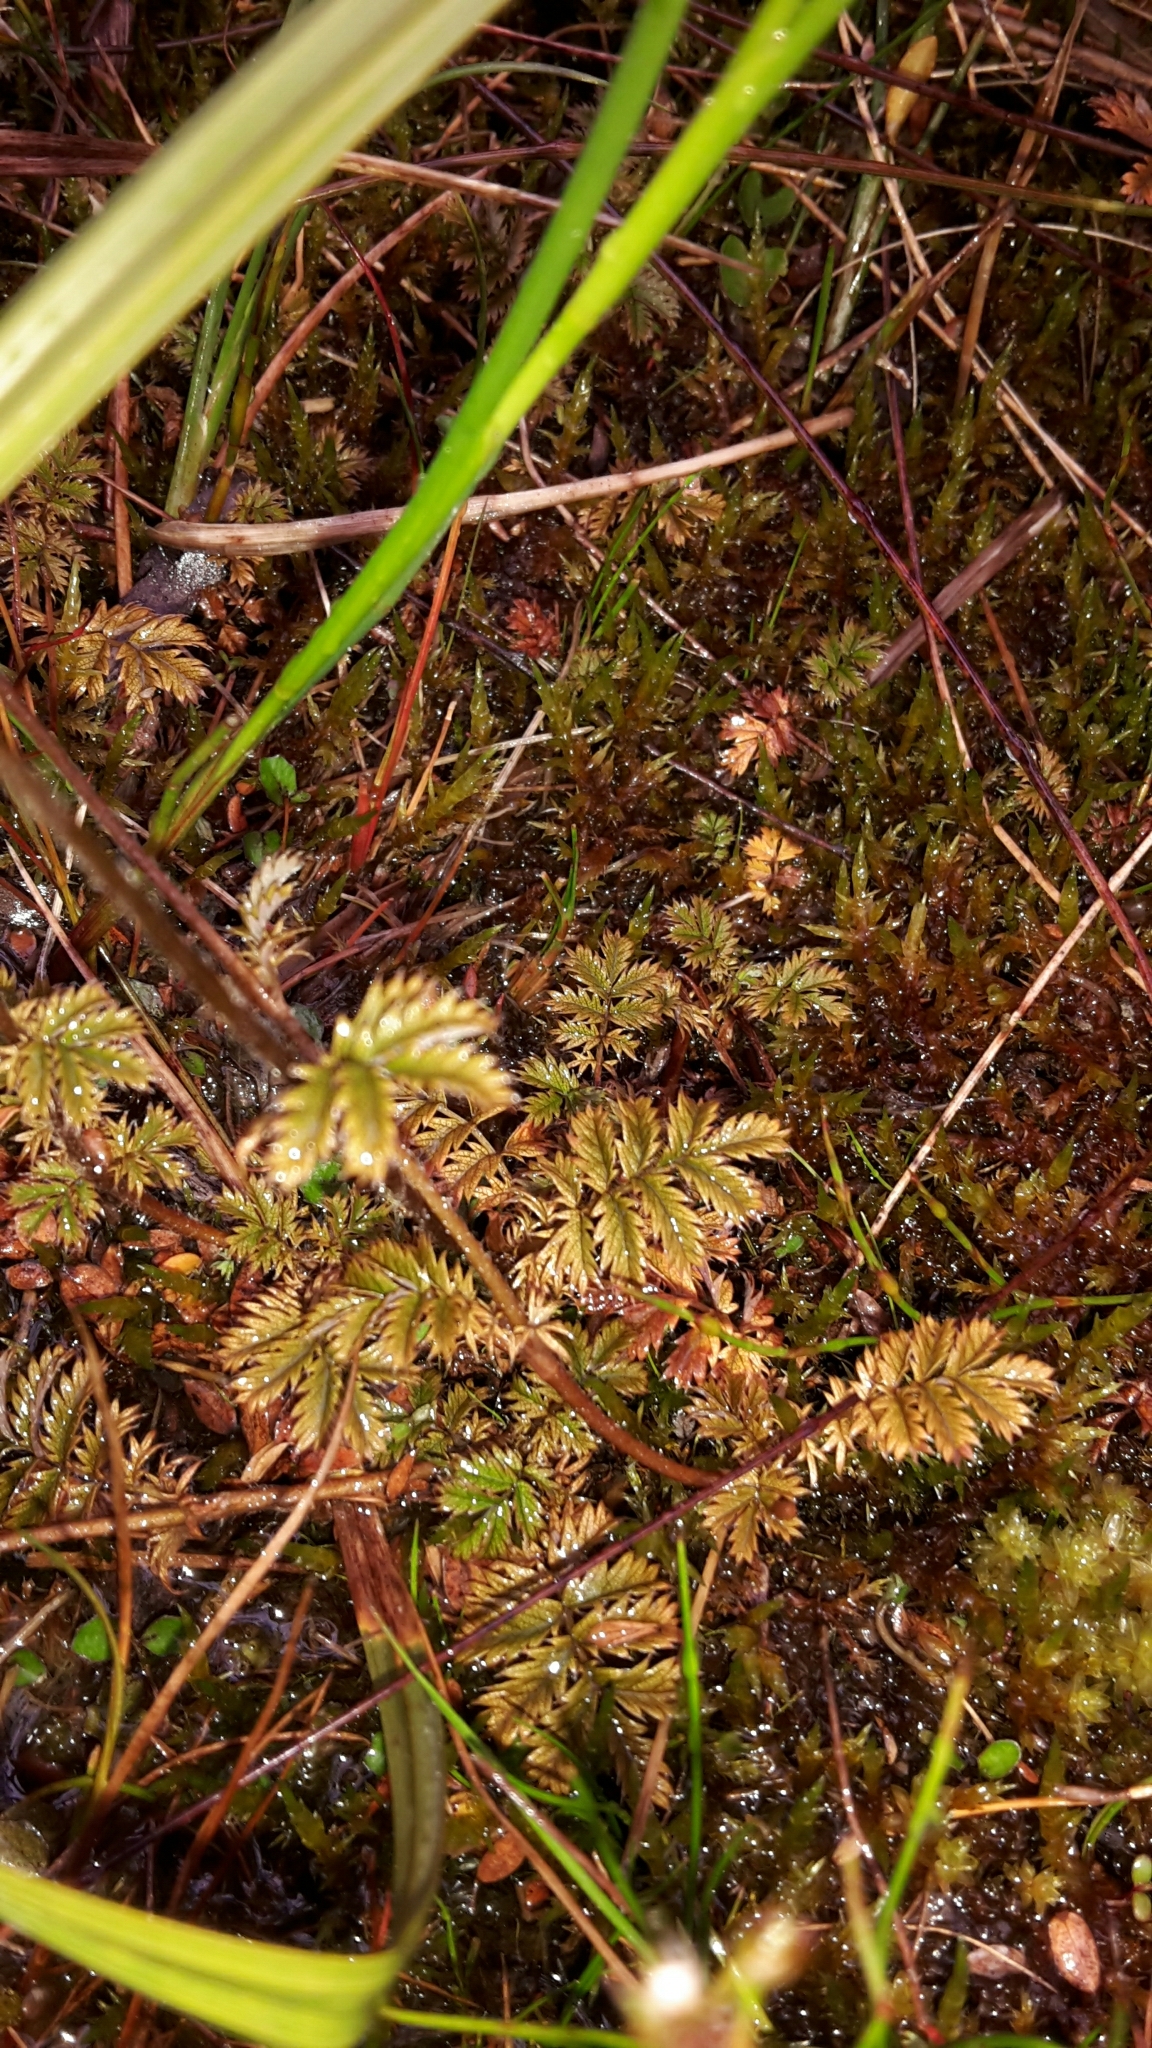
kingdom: Plantae
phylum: Tracheophyta
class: Magnoliopsida
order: Rosales
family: Rosaceae
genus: Acaena
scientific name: Acaena anserinifolia
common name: Bronze pirri-pirri-bur
